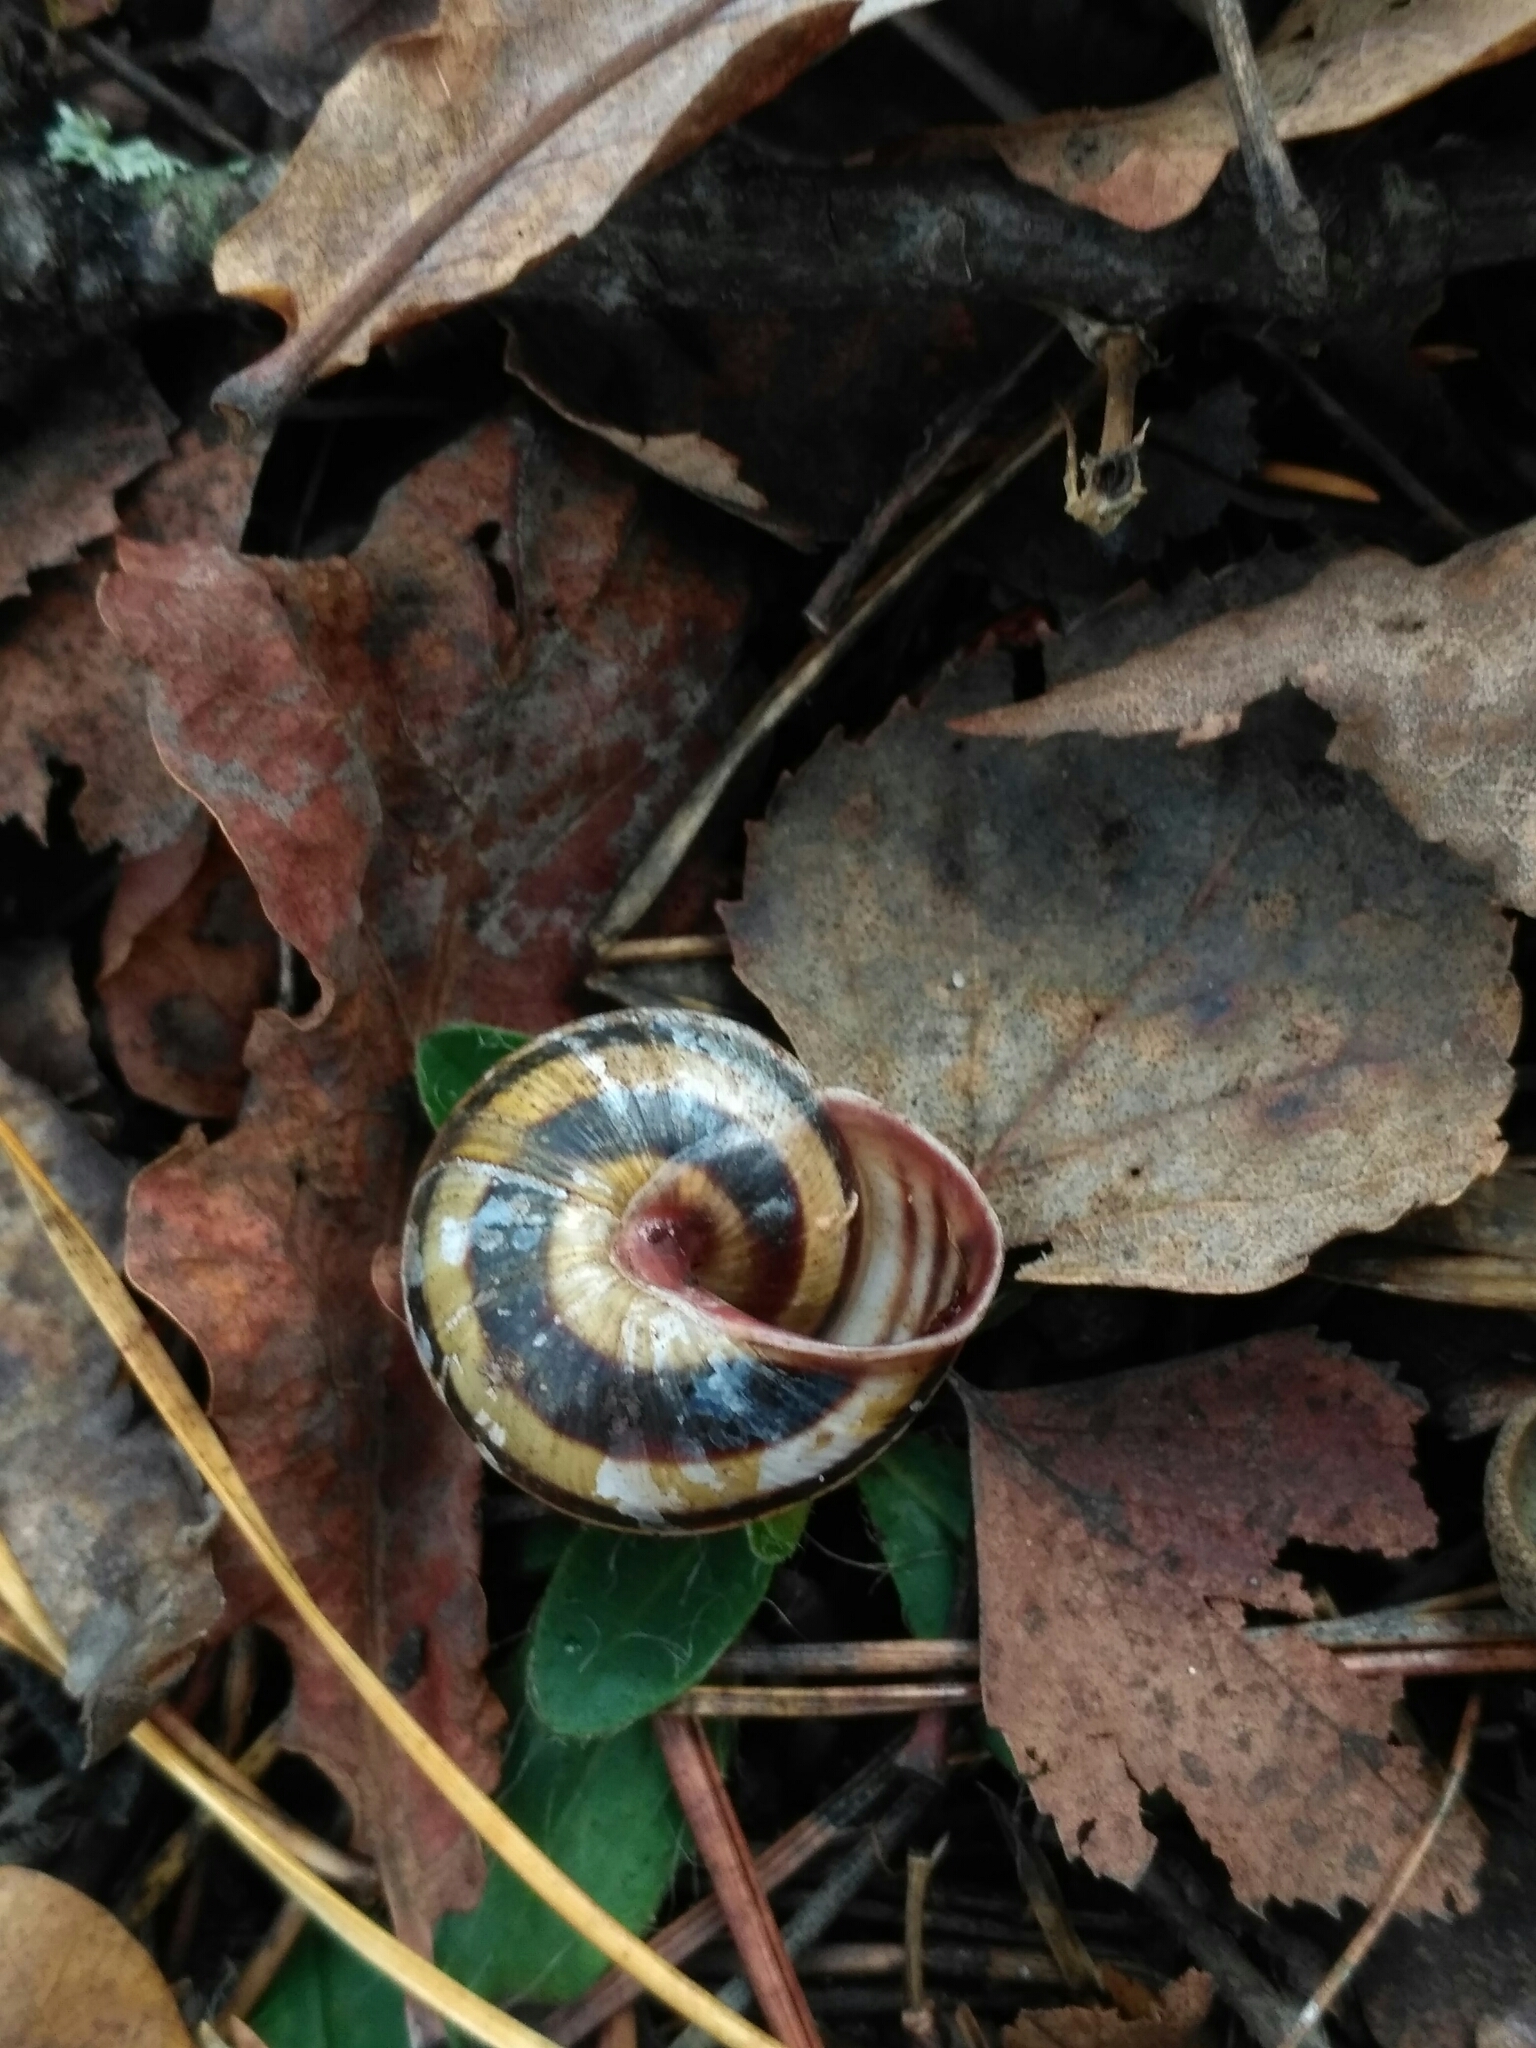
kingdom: Animalia
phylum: Mollusca
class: Gastropoda
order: Stylommatophora
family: Helicidae
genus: Caucasotachea
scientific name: Caucasotachea vindobonensis
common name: European helicid land snail
